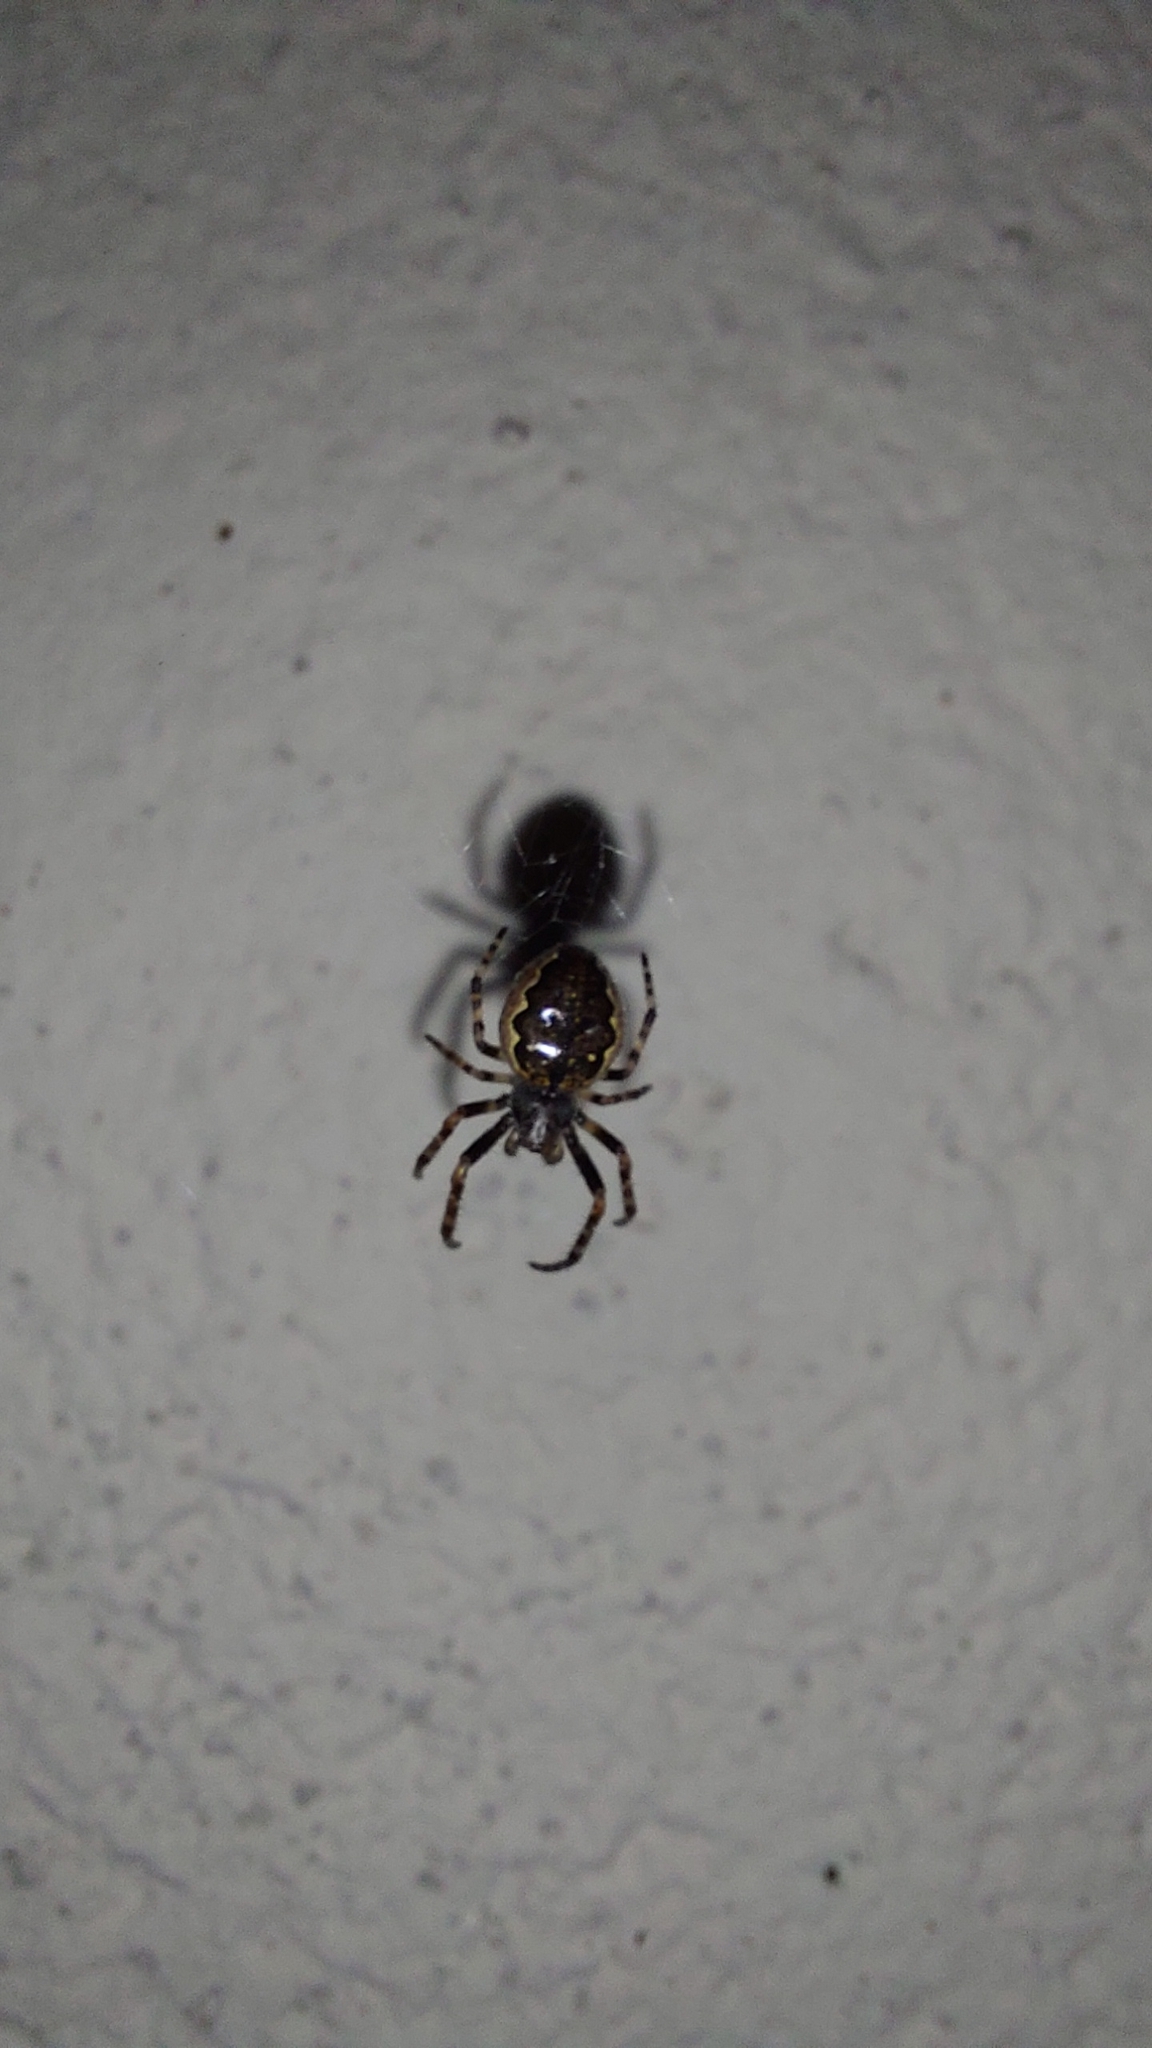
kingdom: Animalia
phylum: Arthropoda
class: Arachnida
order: Araneae
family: Araneidae
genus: Nuctenea
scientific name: Nuctenea umbratica
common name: Toad spider
